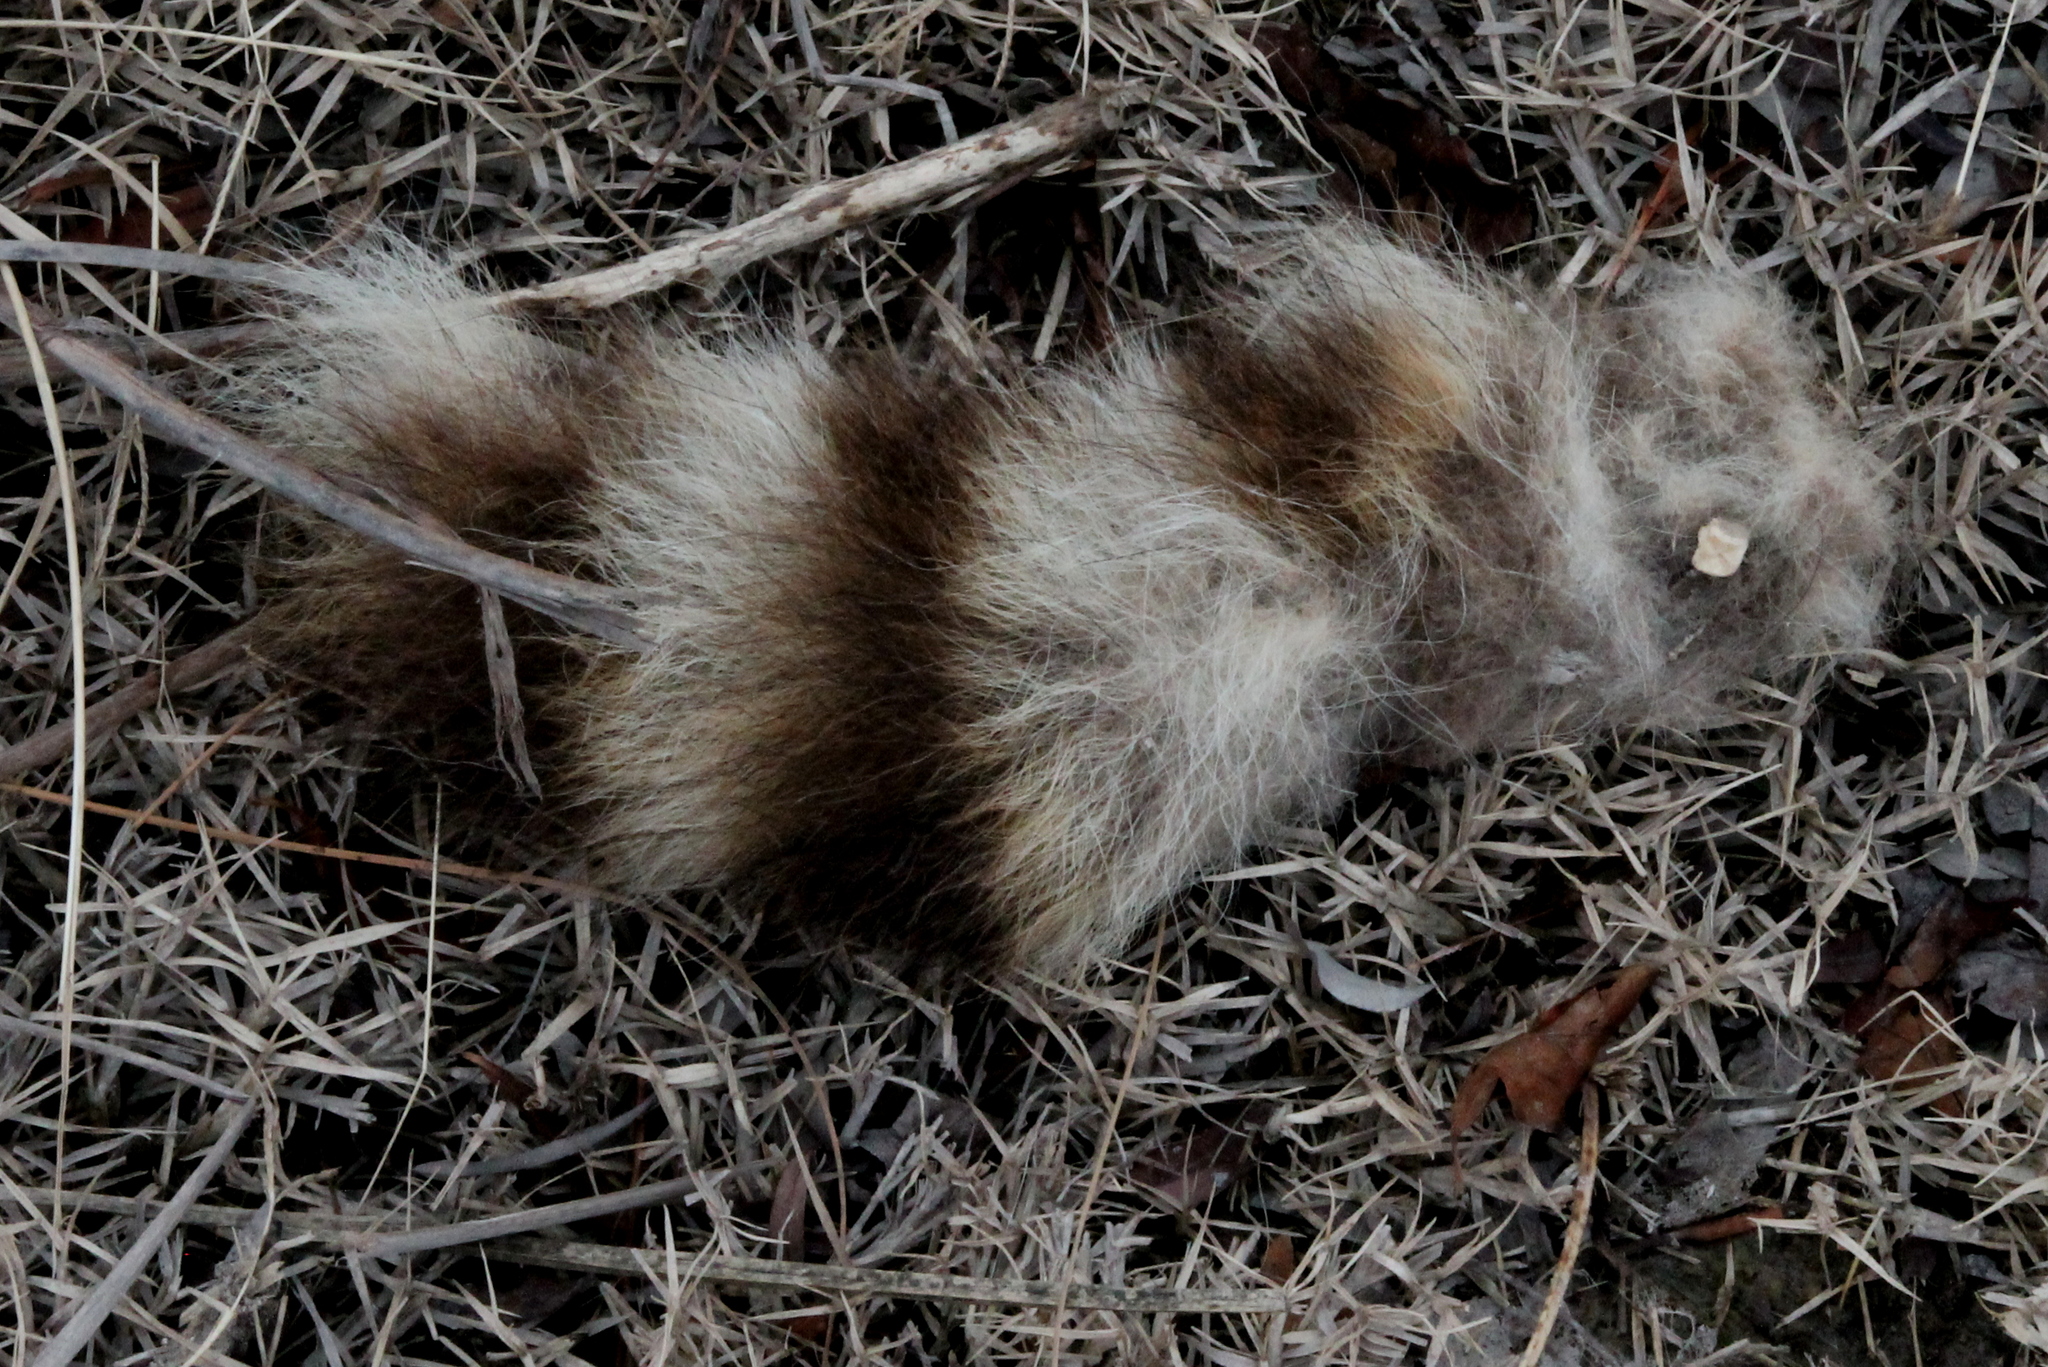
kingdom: Animalia
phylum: Chordata
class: Mammalia
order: Carnivora
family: Procyonidae
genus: Procyon
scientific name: Procyon lotor
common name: Raccoon
